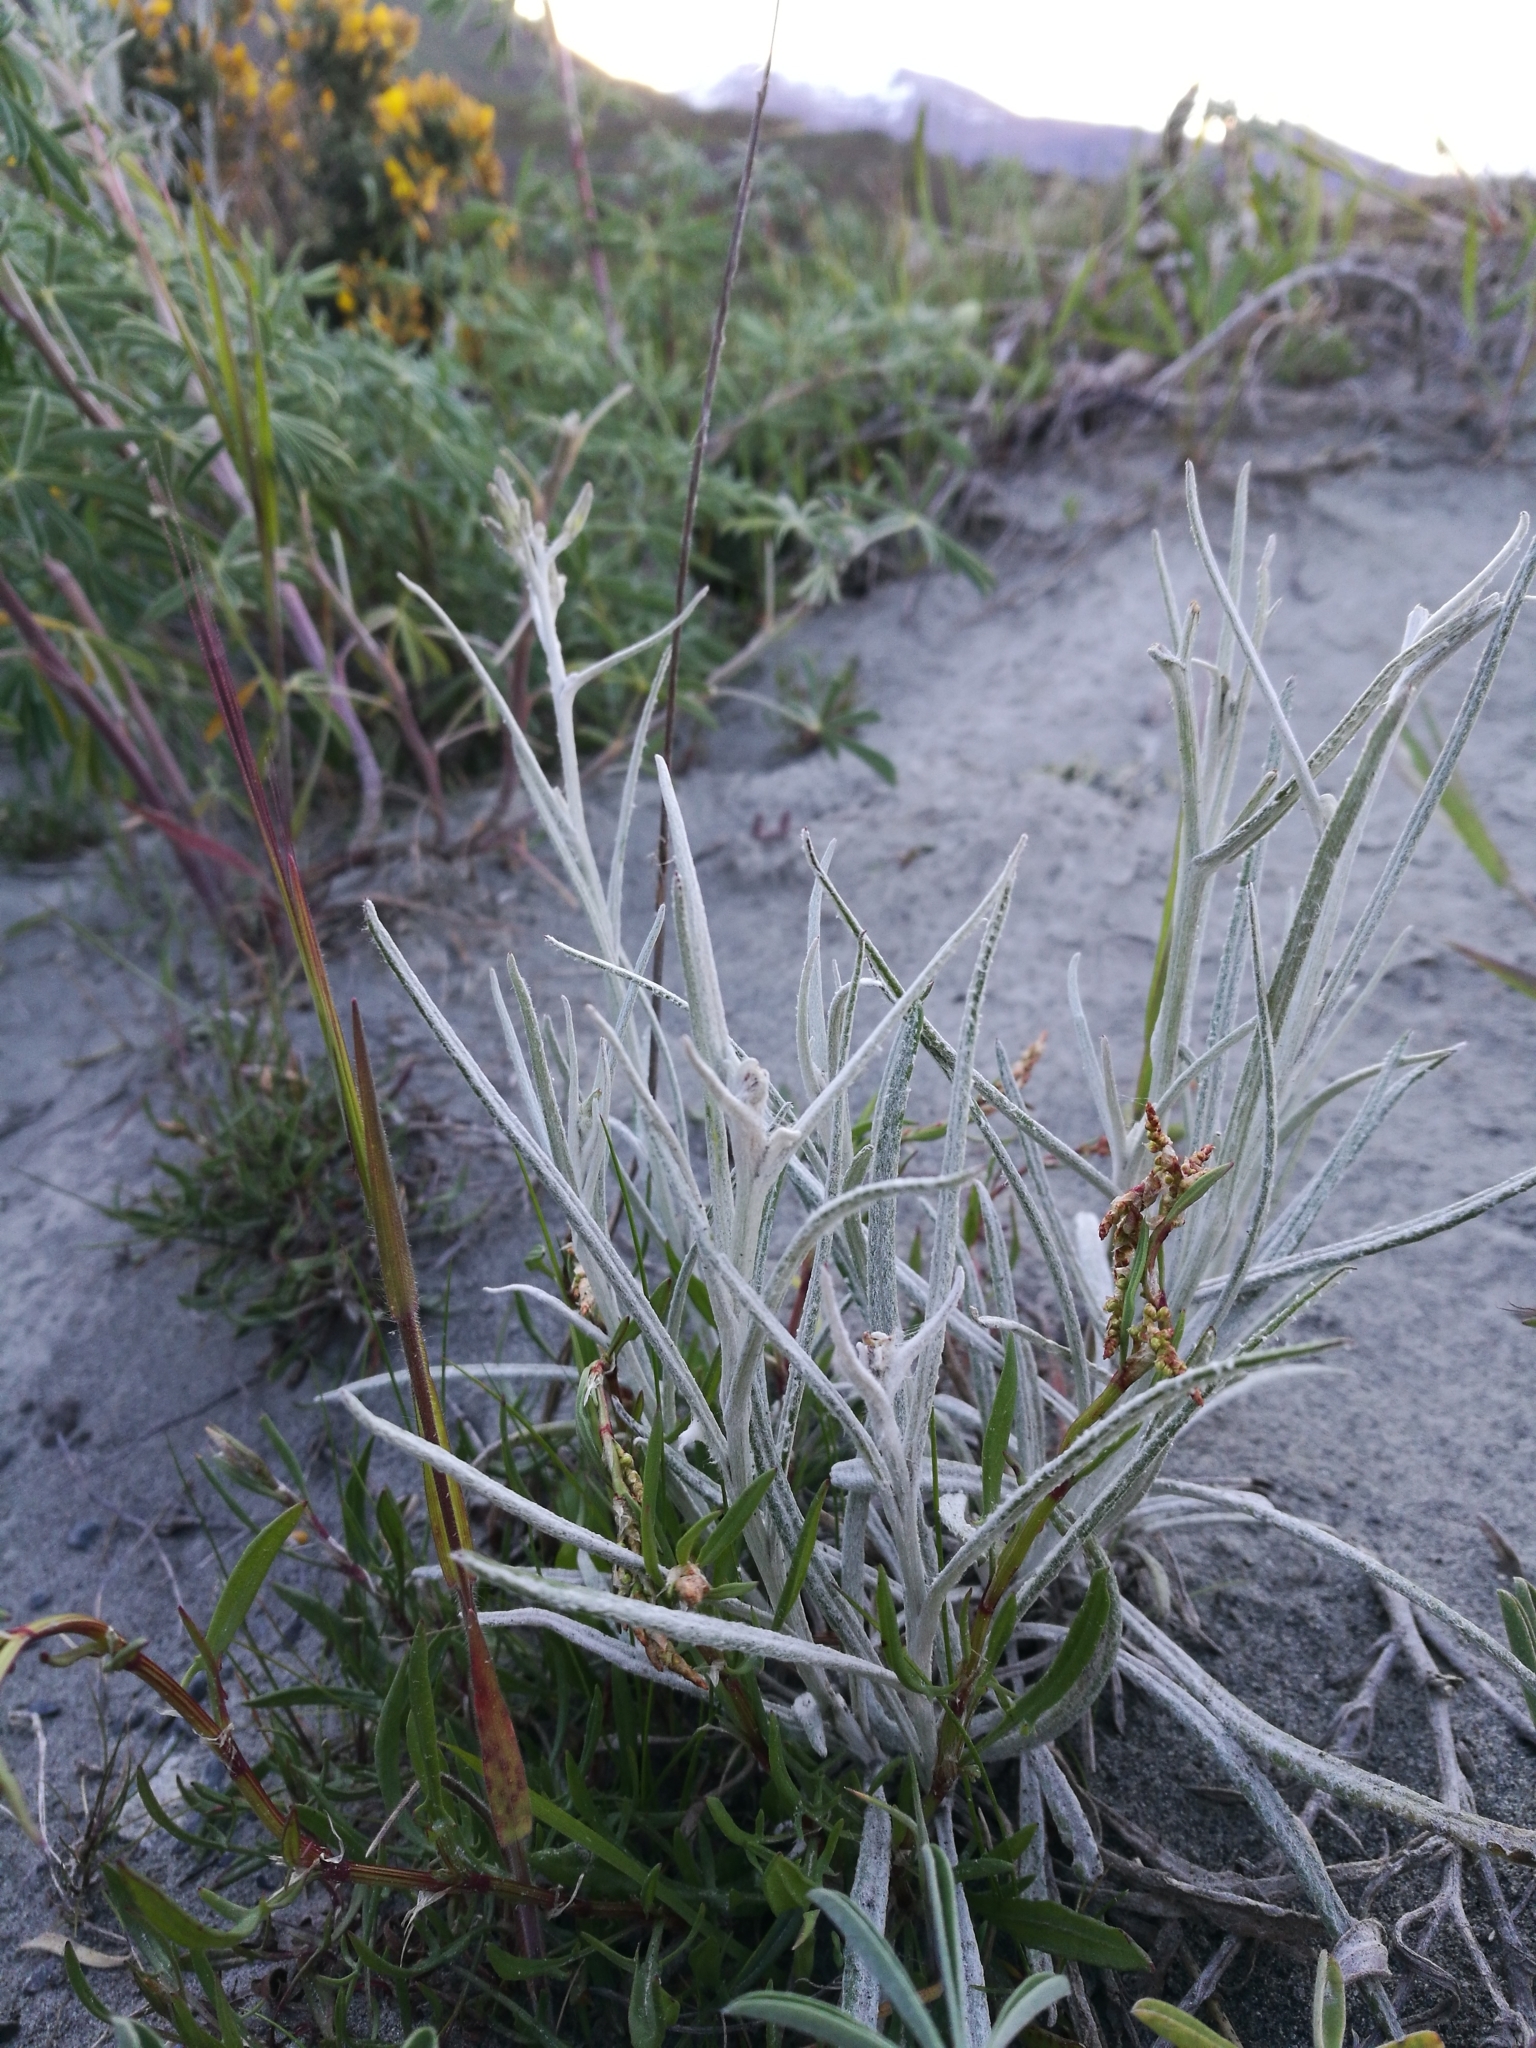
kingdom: Plantae
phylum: Tracheophyta
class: Magnoliopsida
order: Asterales
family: Asteraceae
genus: Senecio
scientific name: Senecio quadridentatus
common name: Cotton fireweed
